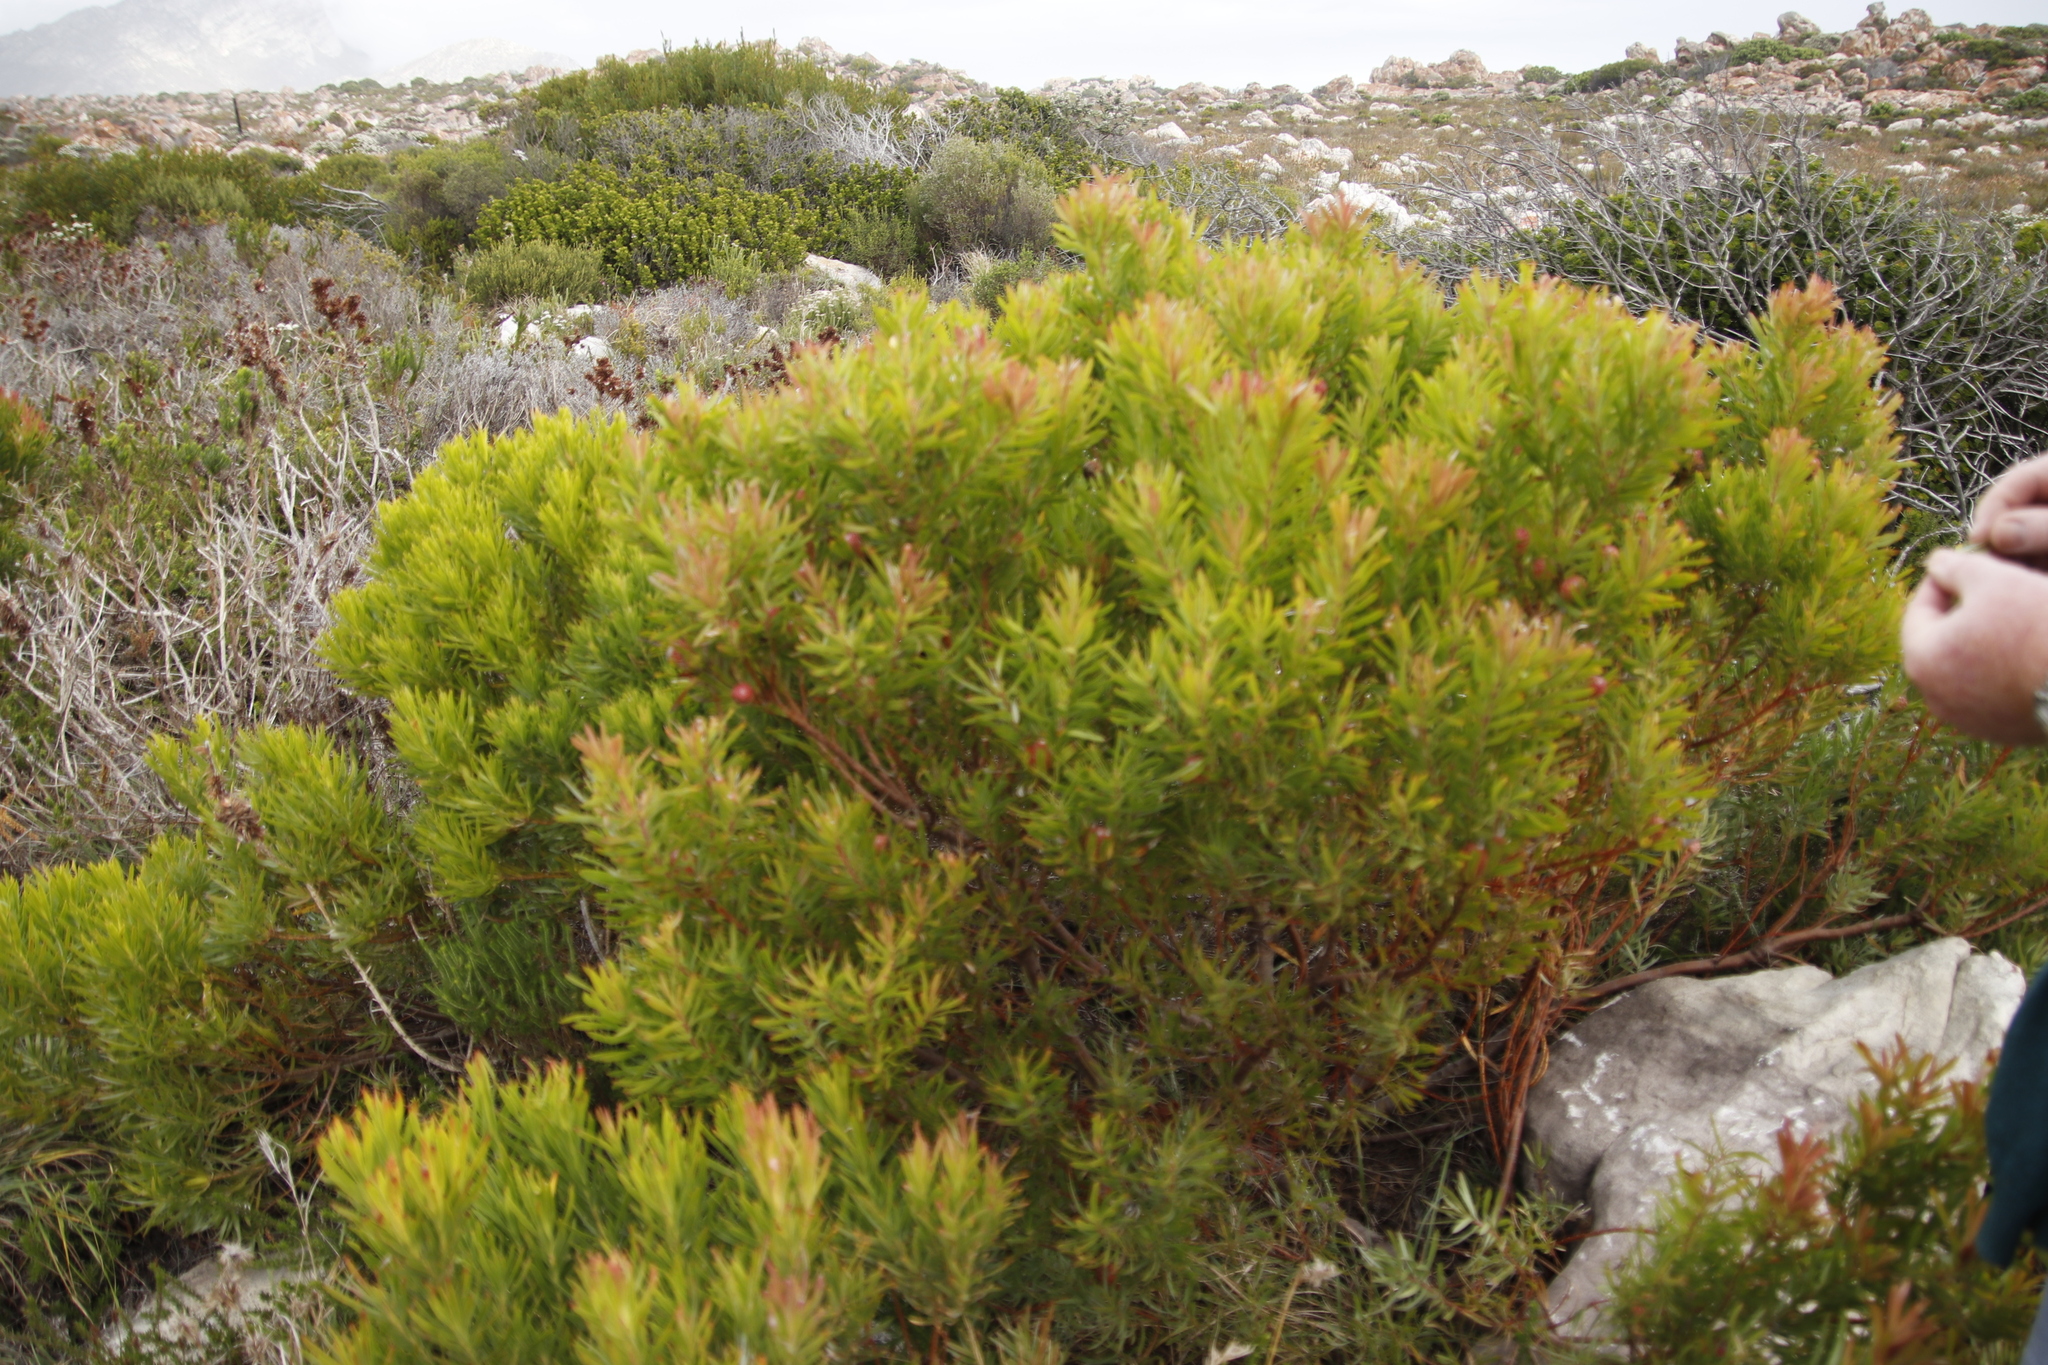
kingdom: Plantae
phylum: Tracheophyta
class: Magnoliopsida
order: Proteales
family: Proteaceae
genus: Leucadendron
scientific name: Leucadendron xanthoconus
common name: Sickle-leaf conebush
